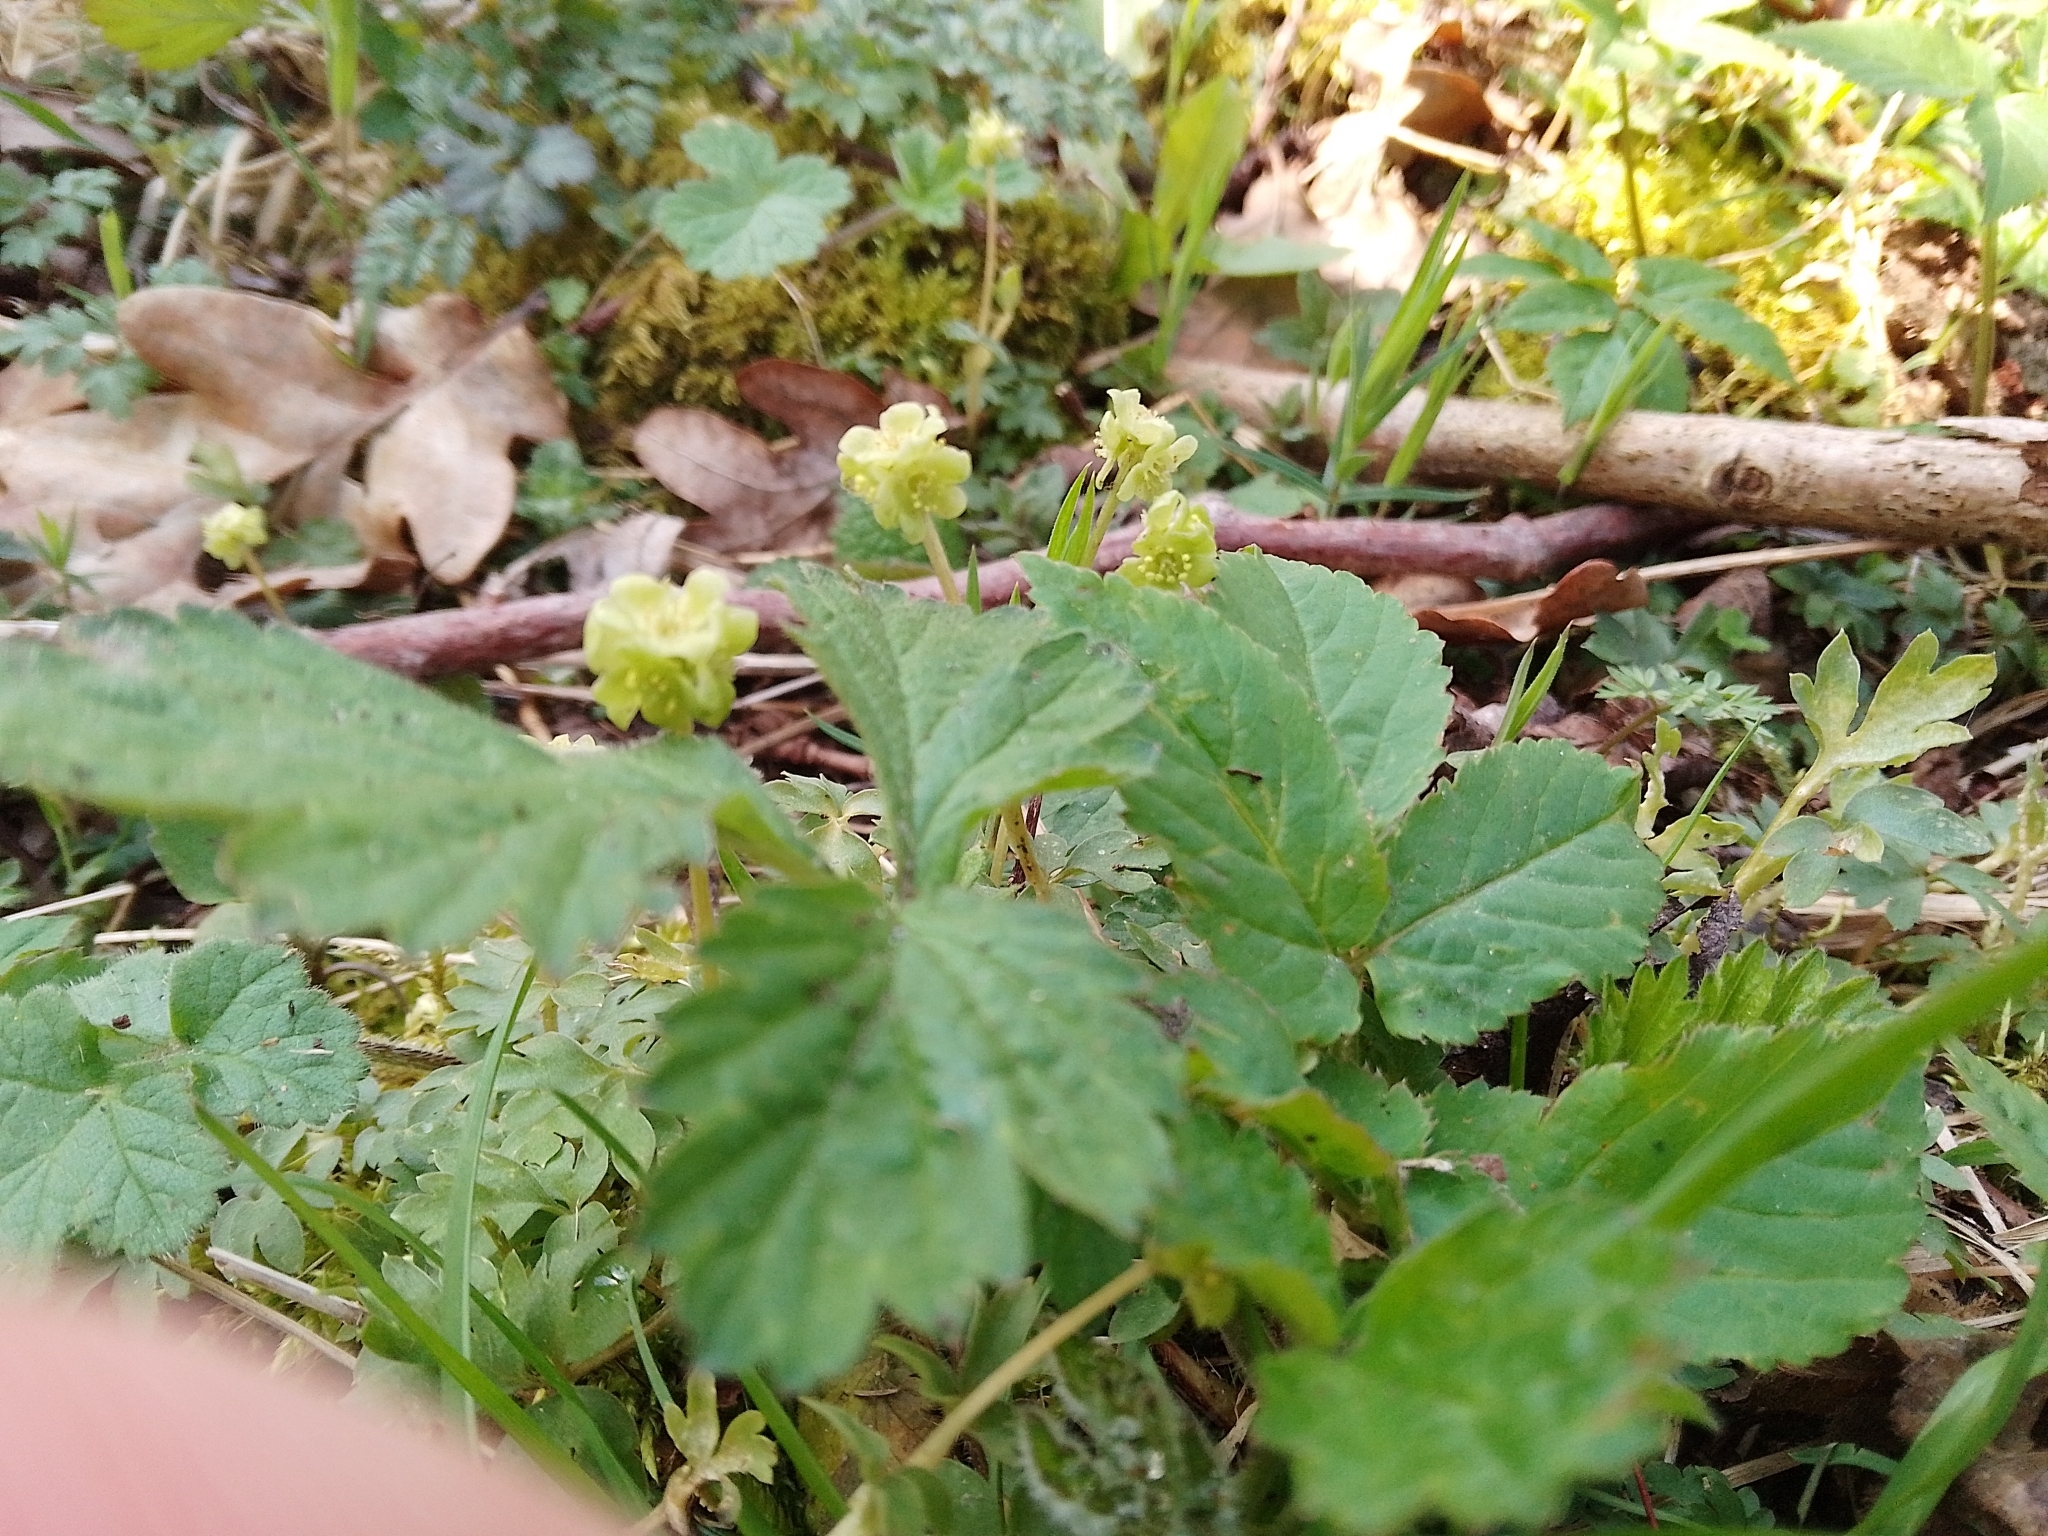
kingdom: Plantae
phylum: Tracheophyta
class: Magnoliopsida
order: Dipsacales
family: Viburnaceae
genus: Adoxa
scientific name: Adoxa moschatellina
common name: Moschatel
